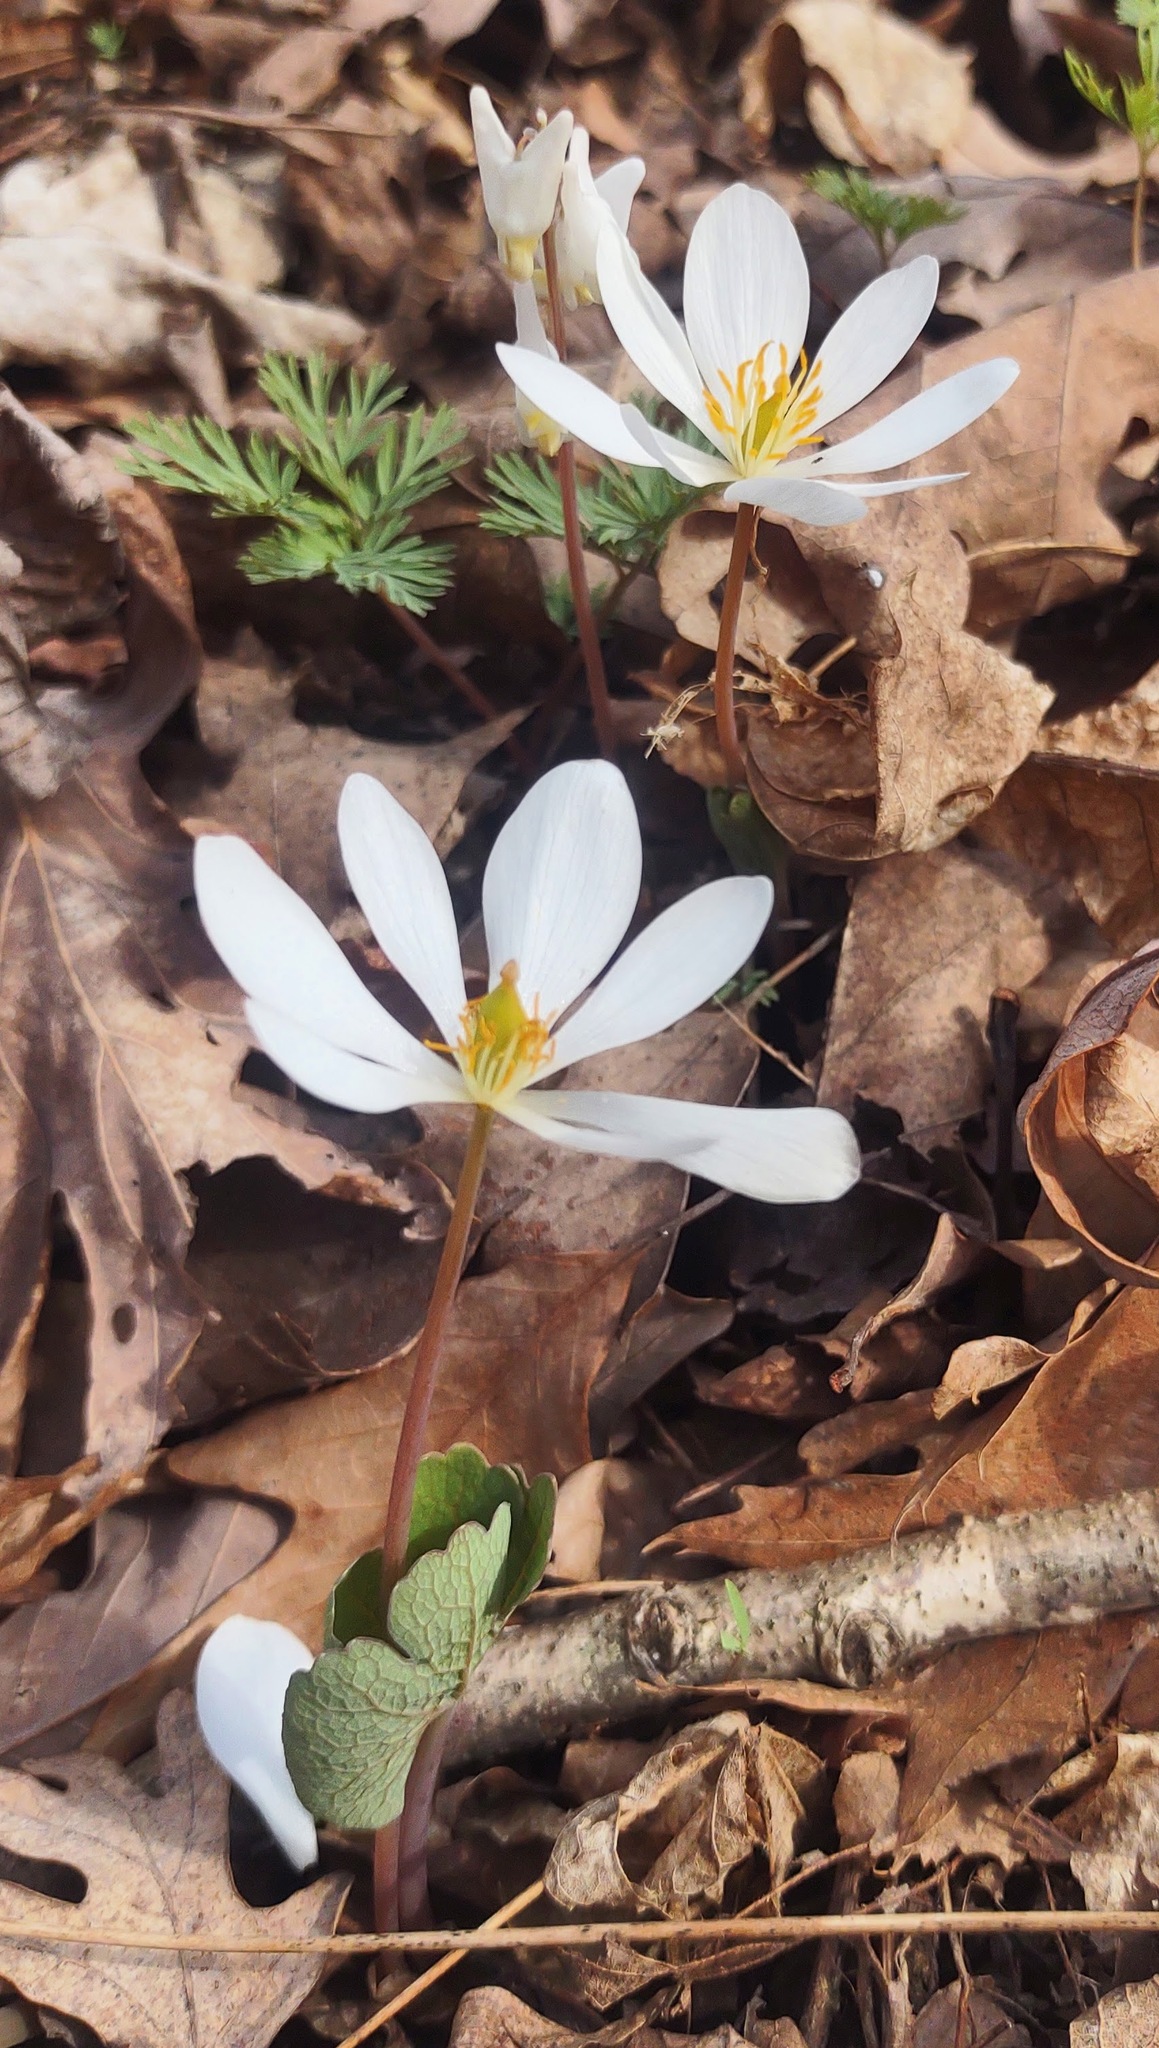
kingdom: Plantae
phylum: Tracheophyta
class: Magnoliopsida
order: Ranunculales
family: Papaveraceae
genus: Sanguinaria
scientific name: Sanguinaria canadensis
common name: Bloodroot
